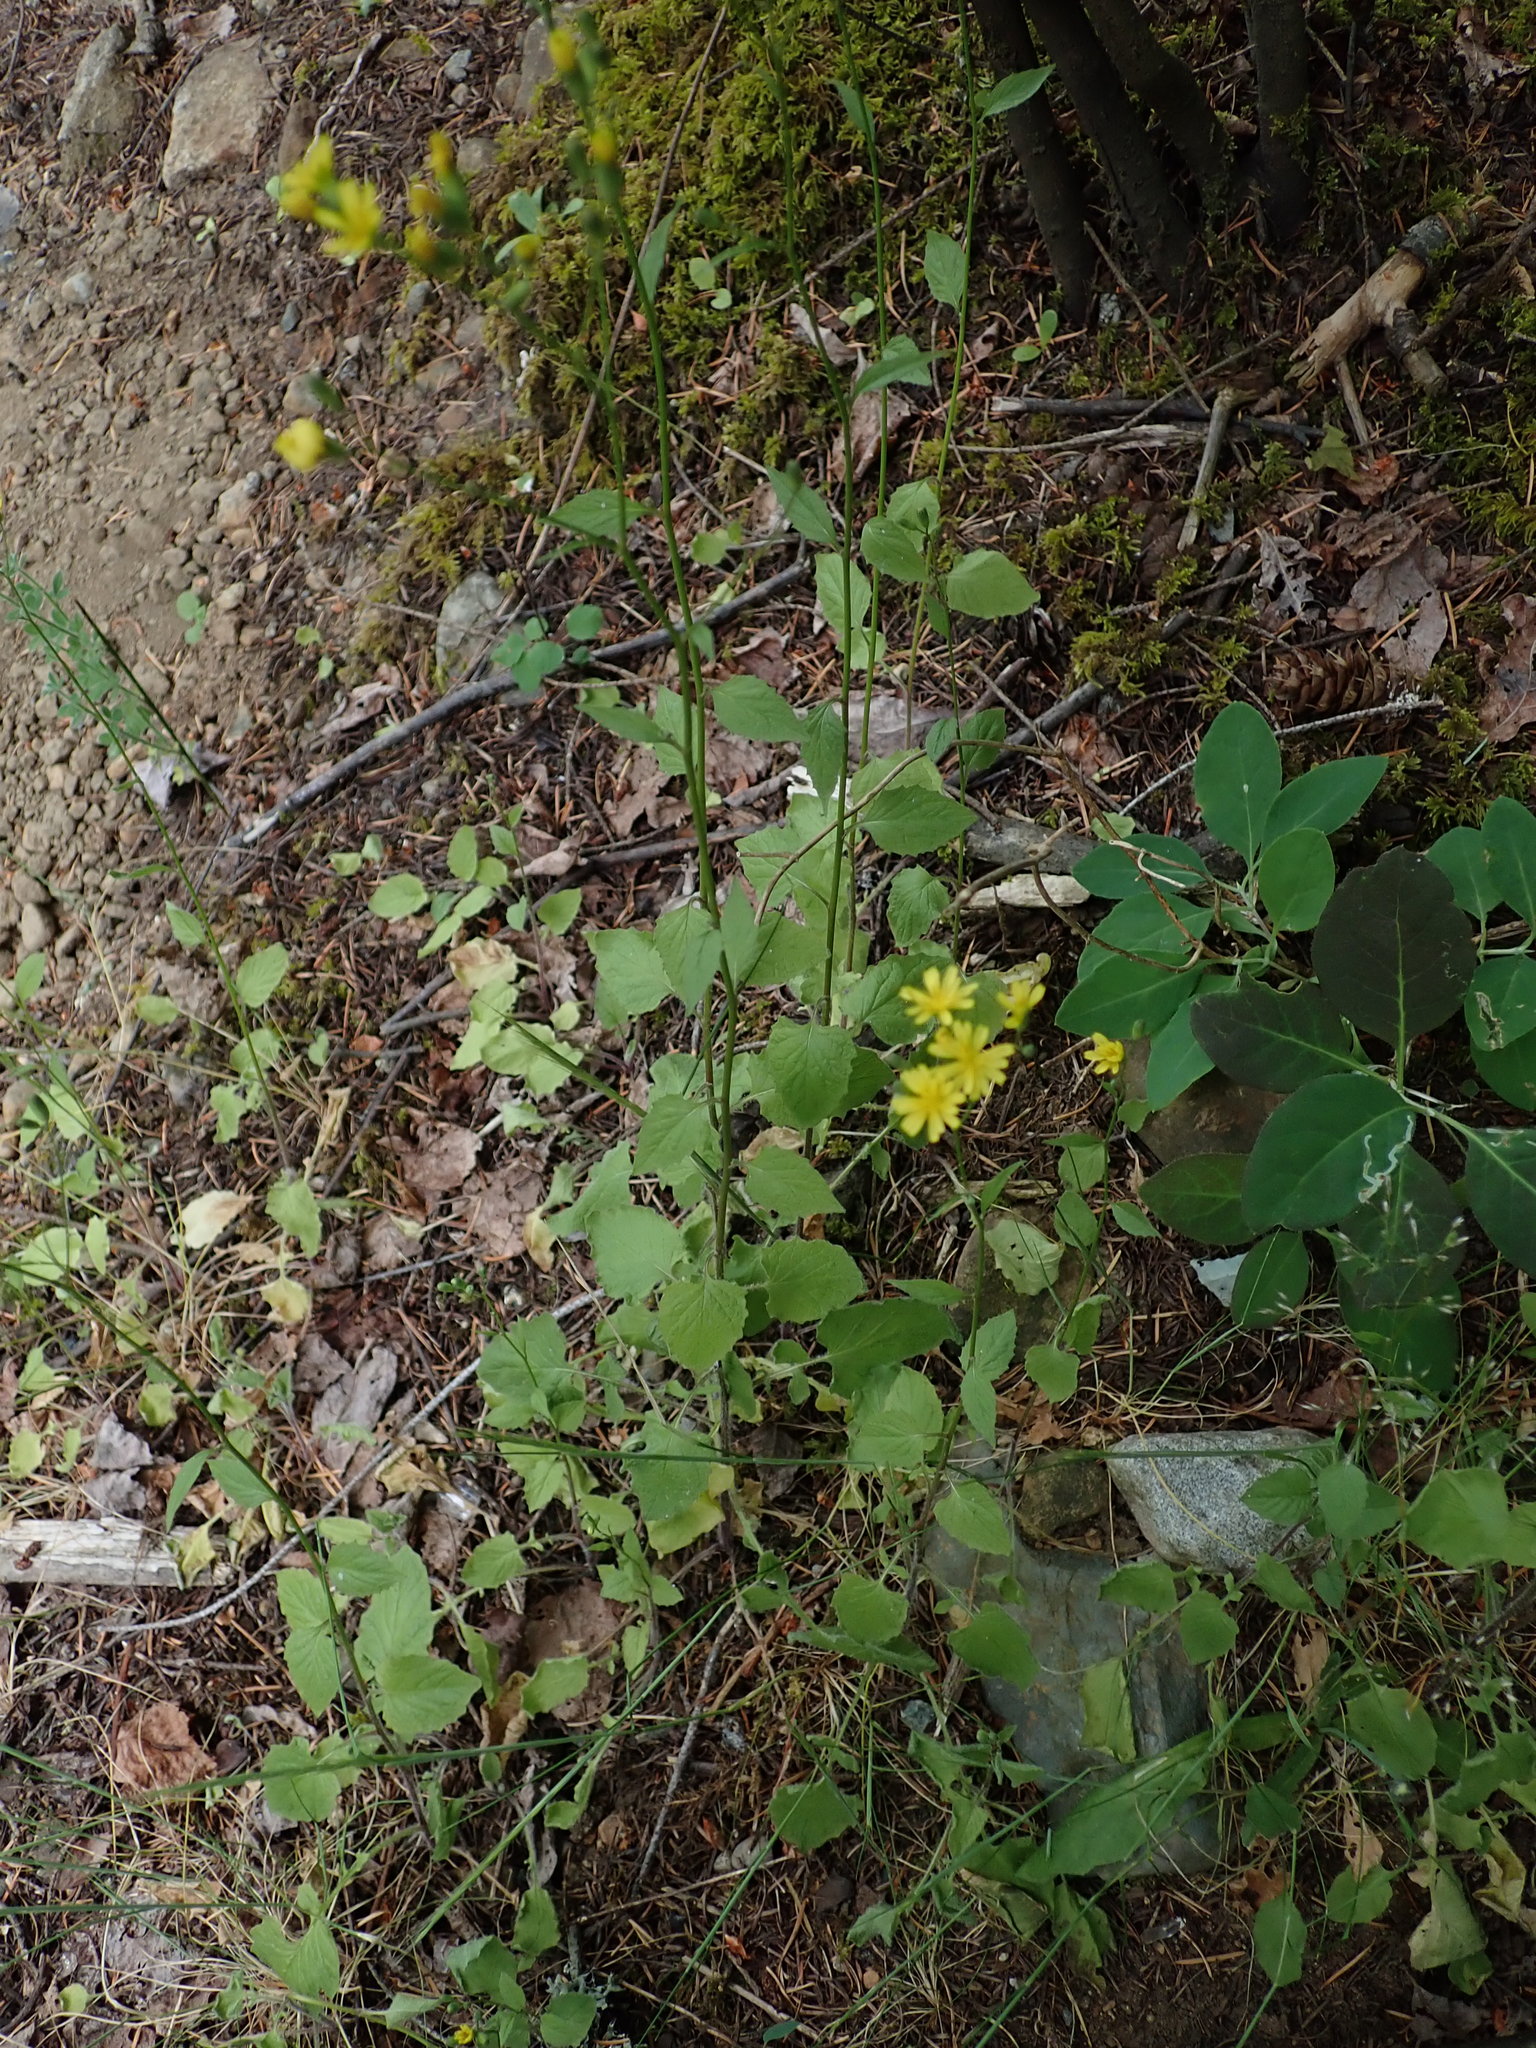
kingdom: Plantae
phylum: Tracheophyta
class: Magnoliopsida
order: Asterales
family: Asteraceae
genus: Lapsana
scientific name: Lapsana communis
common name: Nipplewort
